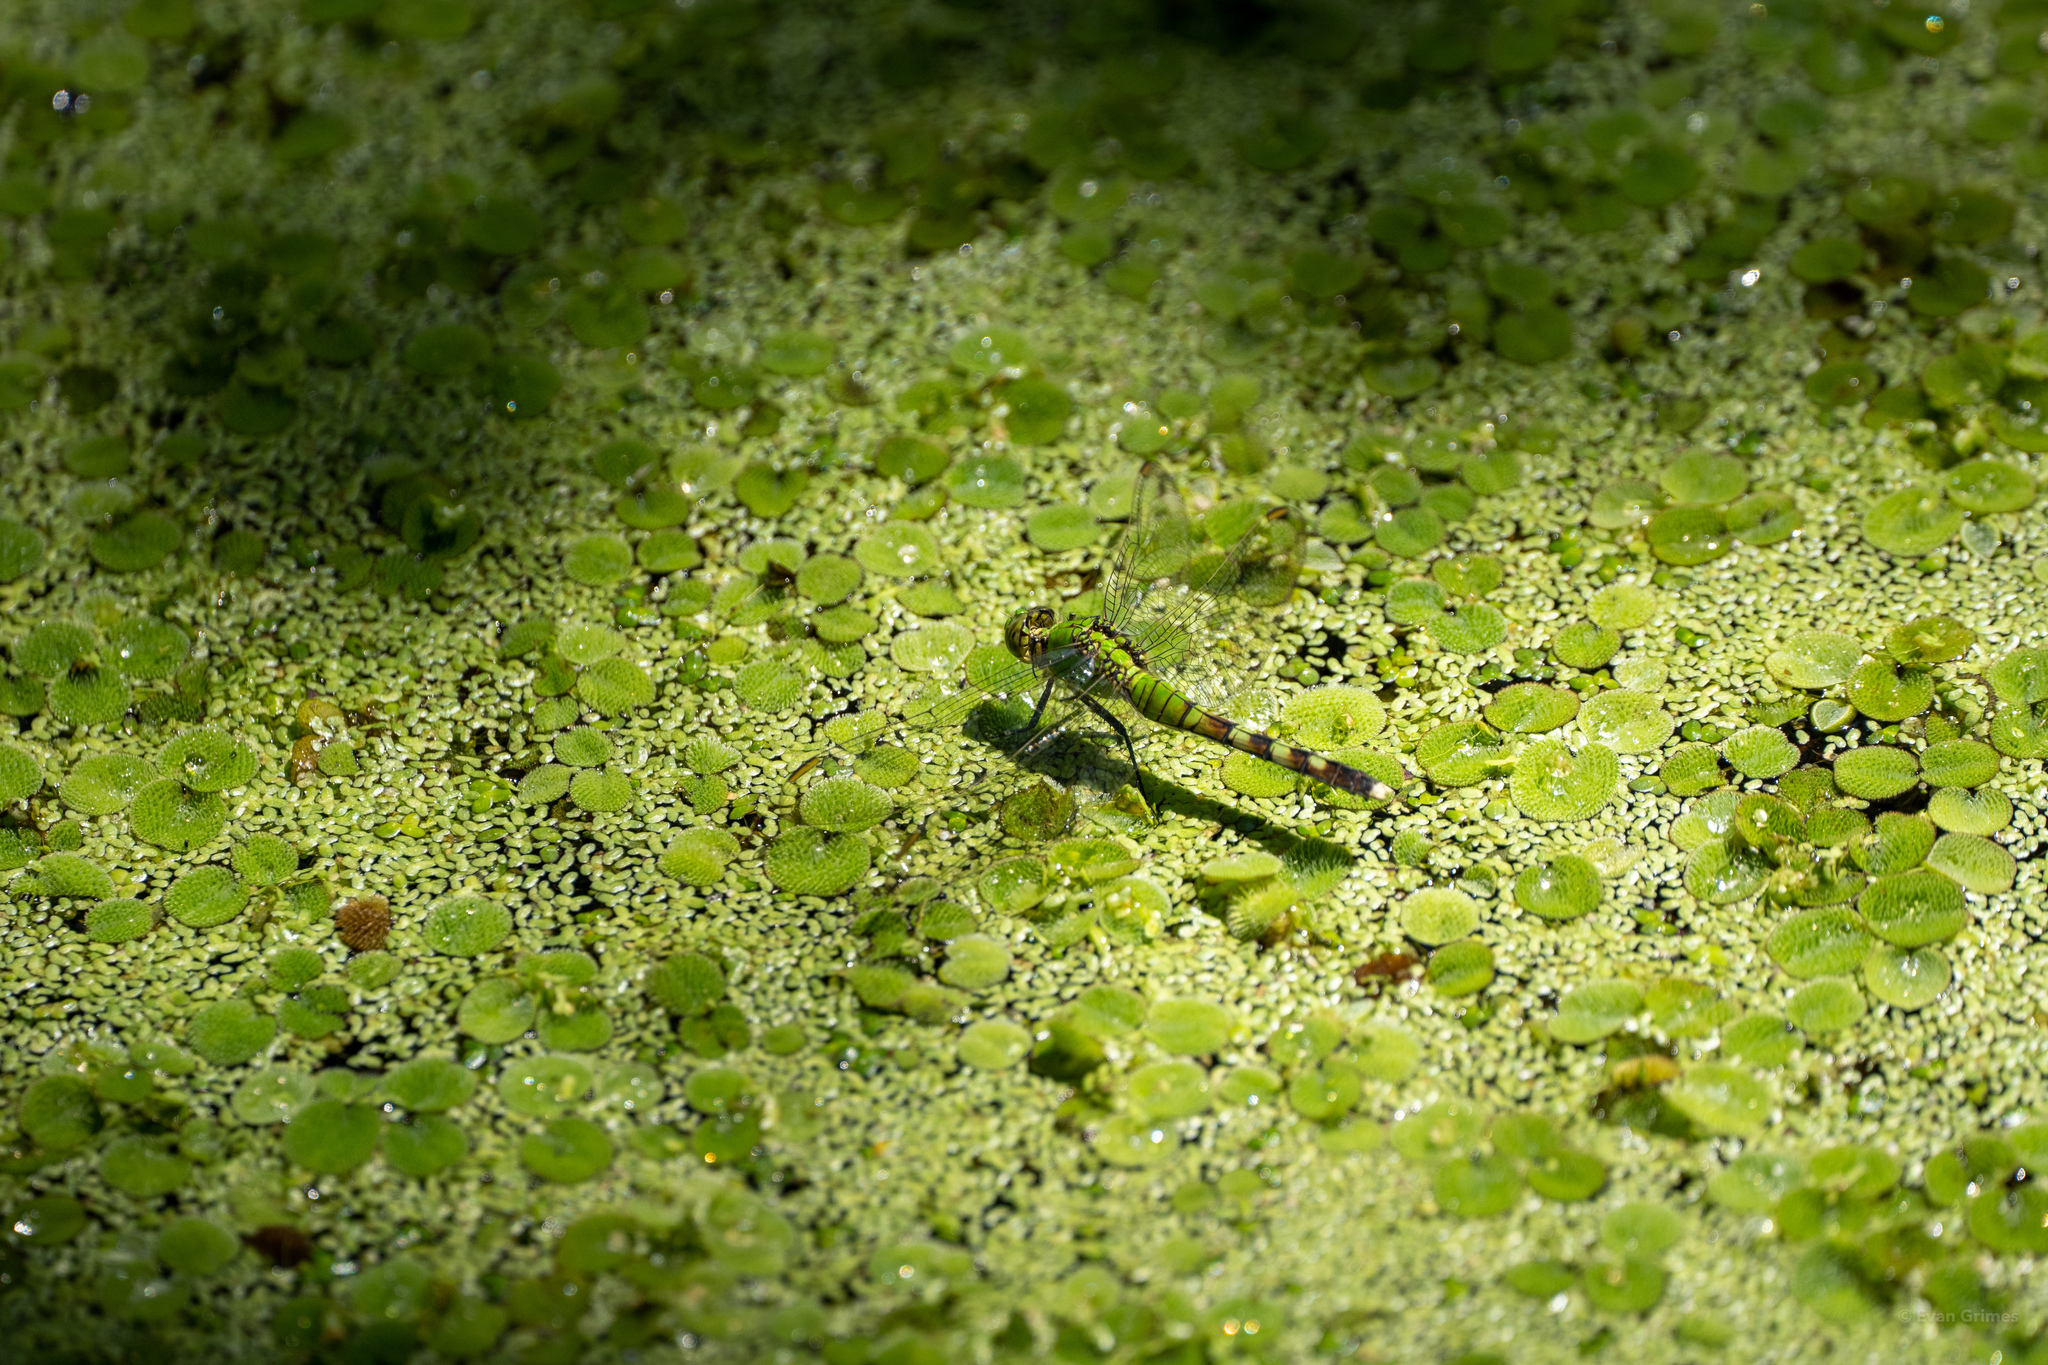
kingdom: Animalia
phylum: Arthropoda
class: Insecta
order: Odonata
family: Libellulidae
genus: Erythemis
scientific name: Erythemis simplicicollis
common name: Eastern pondhawk
